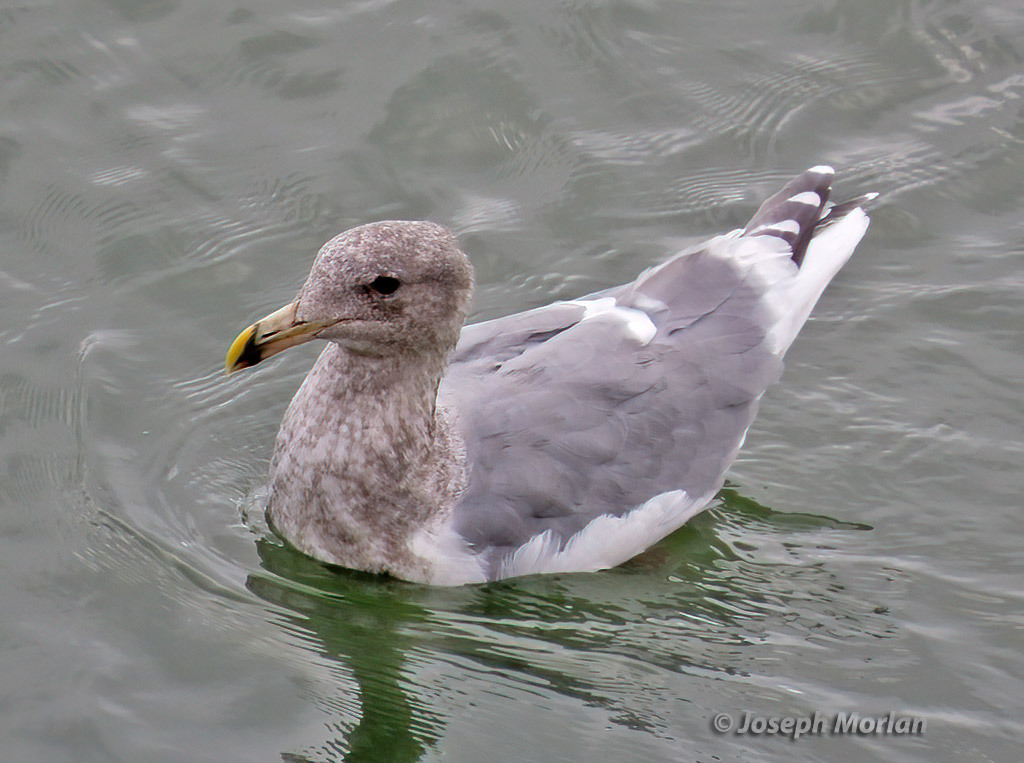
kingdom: Animalia
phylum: Chordata
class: Aves
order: Charadriiformes
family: Laridae
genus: Larus
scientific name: Larus glaucescens
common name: Glaucous-winged gull
